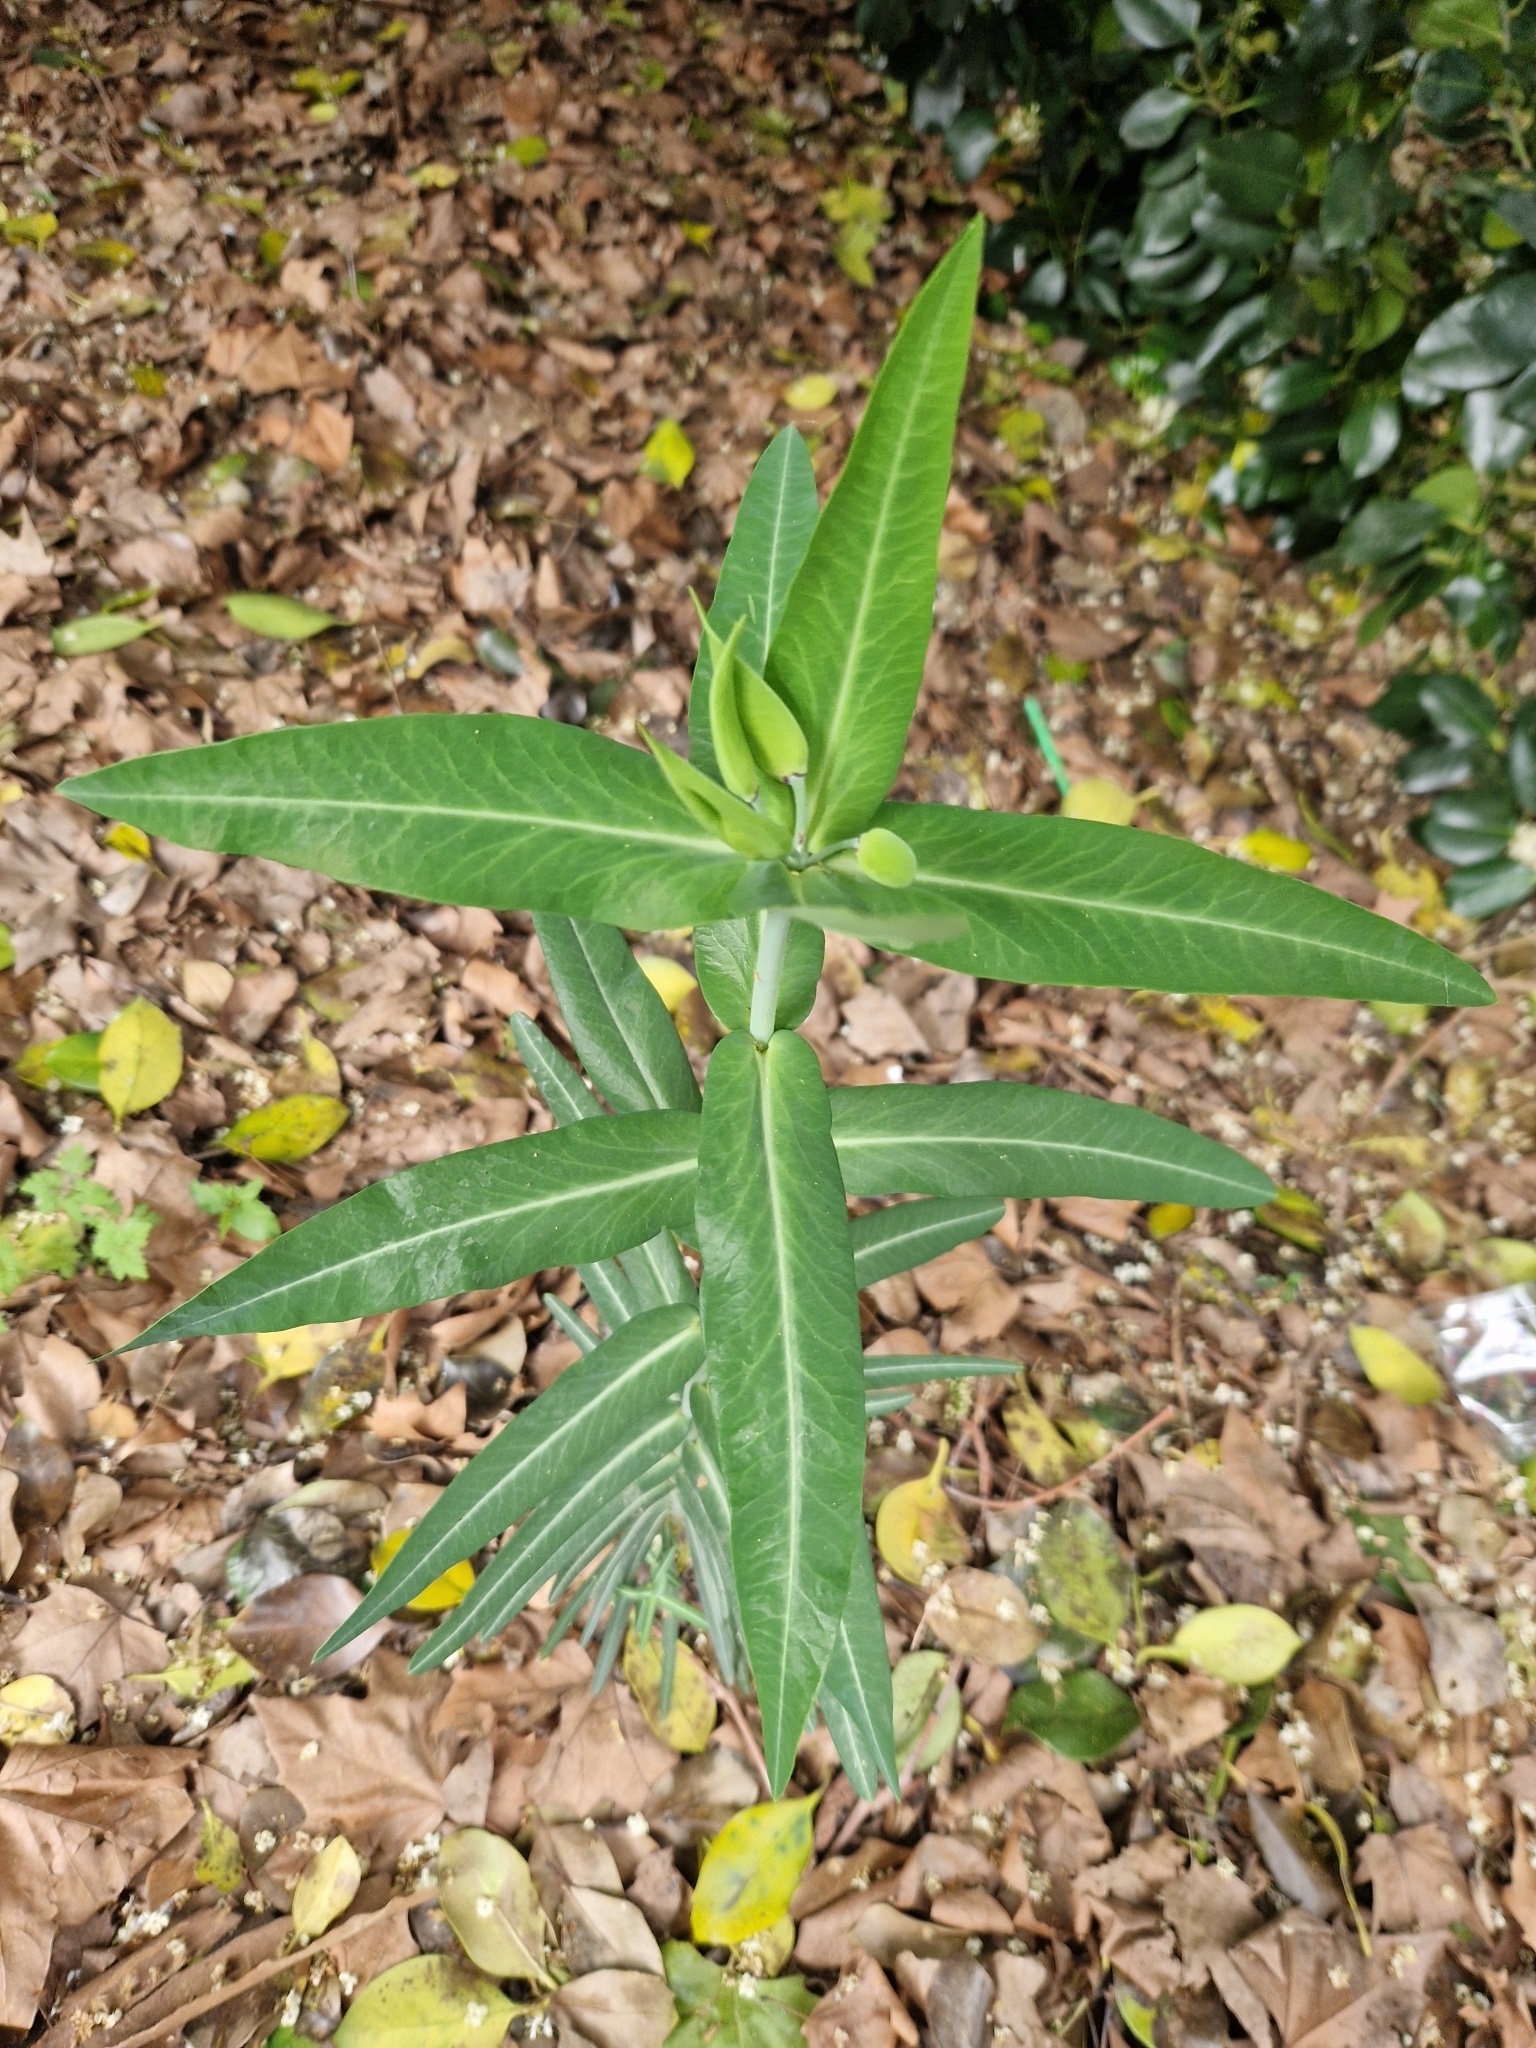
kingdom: Plantae
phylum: Tracheophyta
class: Magnoliopsida
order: Malpighiales
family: Euphorbiaceae
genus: Euphorbia
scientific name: Euphorbia lathyris
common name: Caper spurge
